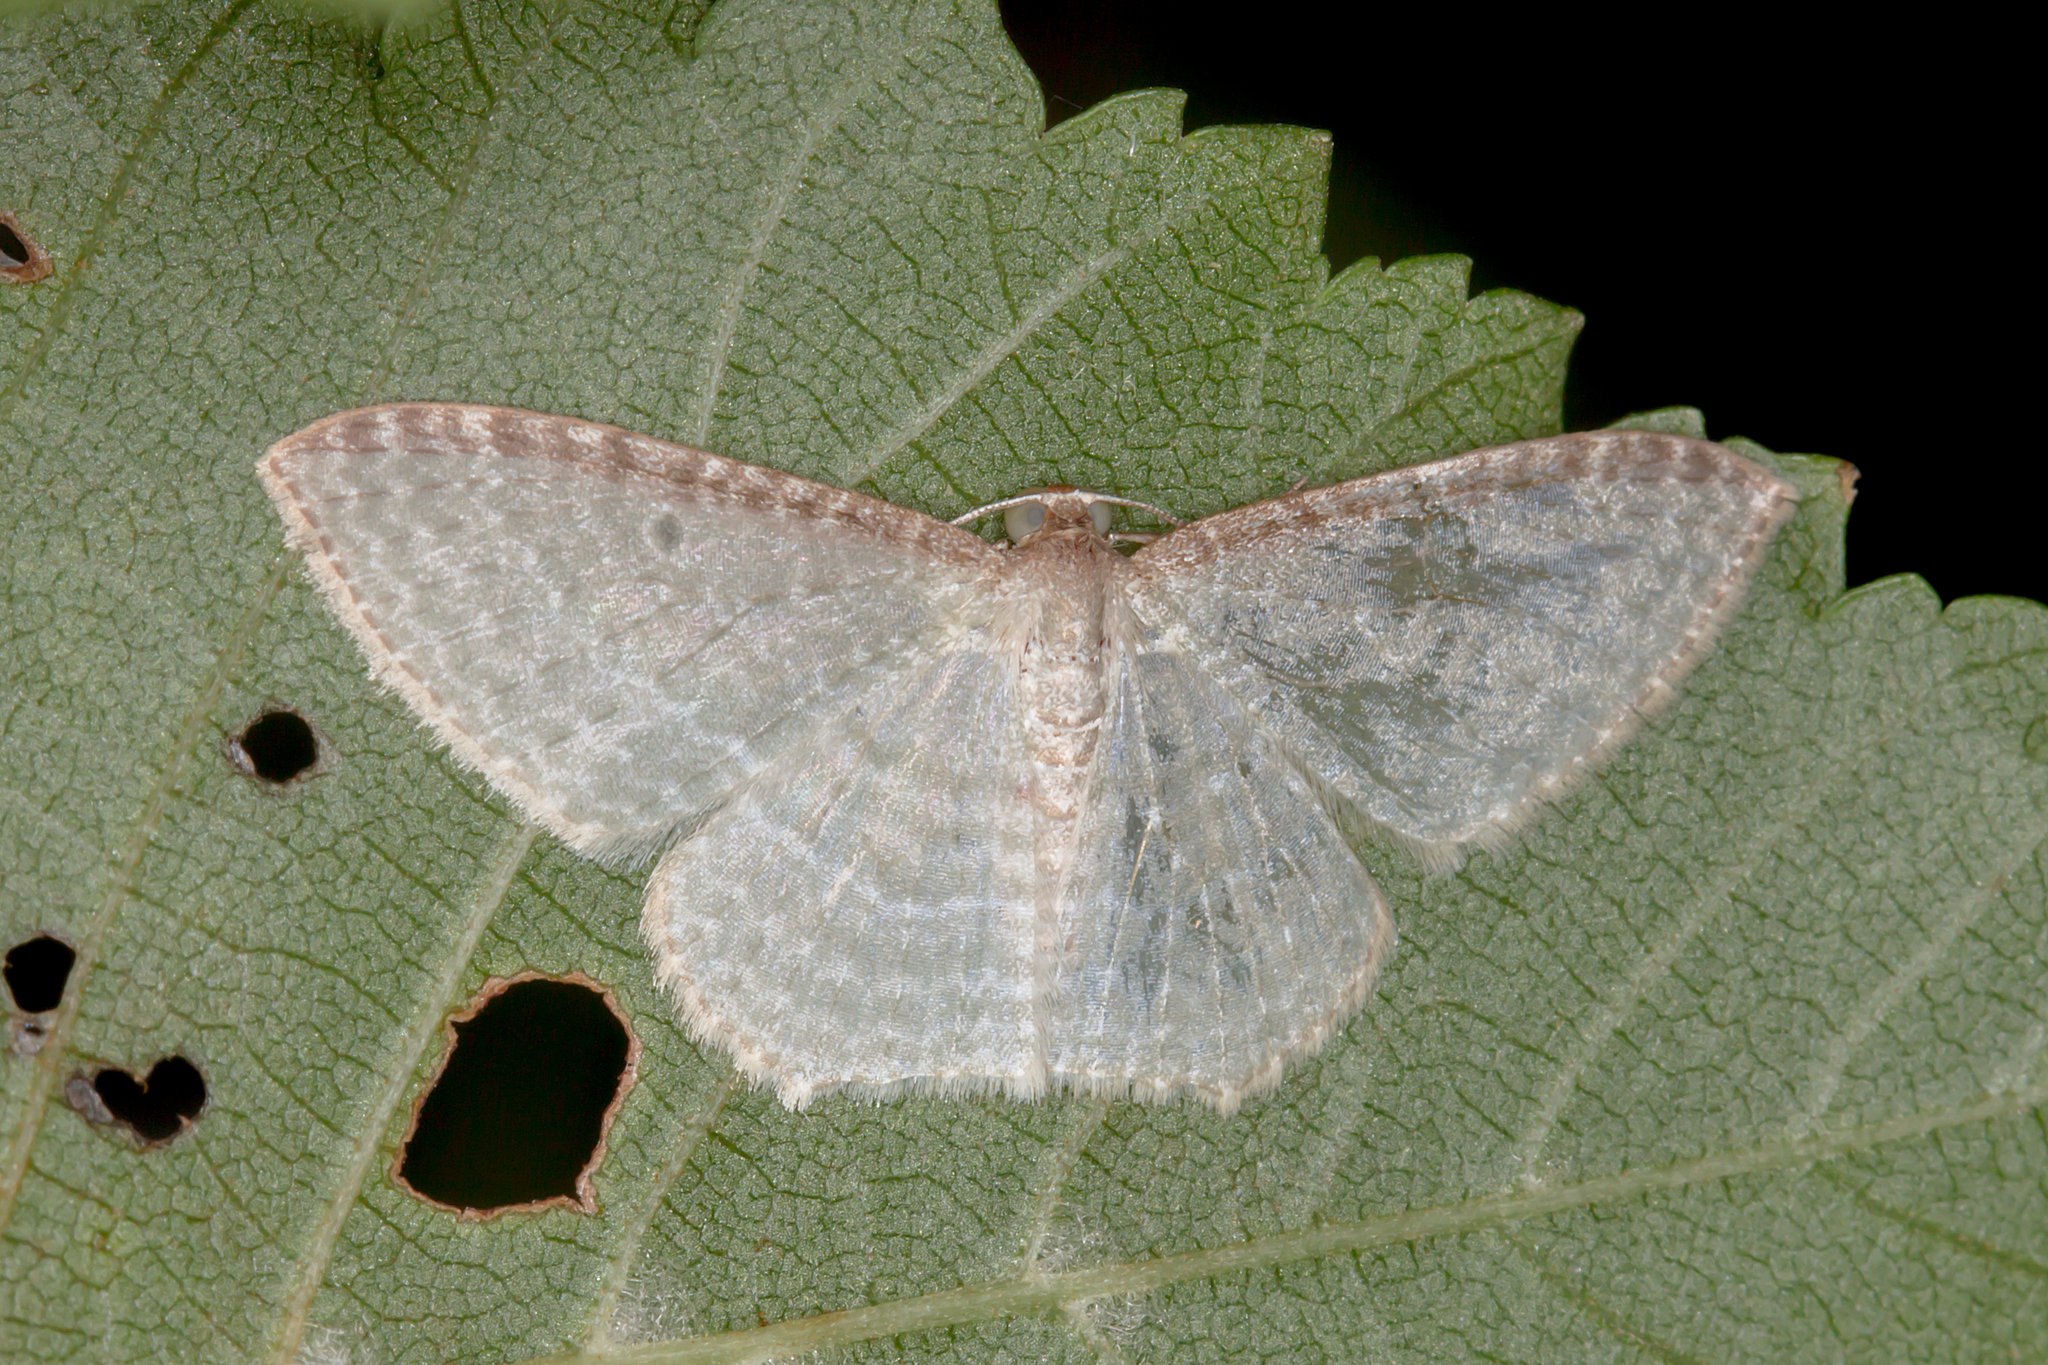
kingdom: Animalia
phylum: Arthropoda
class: Insecta
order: Lepidoptera
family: Geometridae
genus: Poecilasthena
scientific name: Poecilasthena pulchraria
